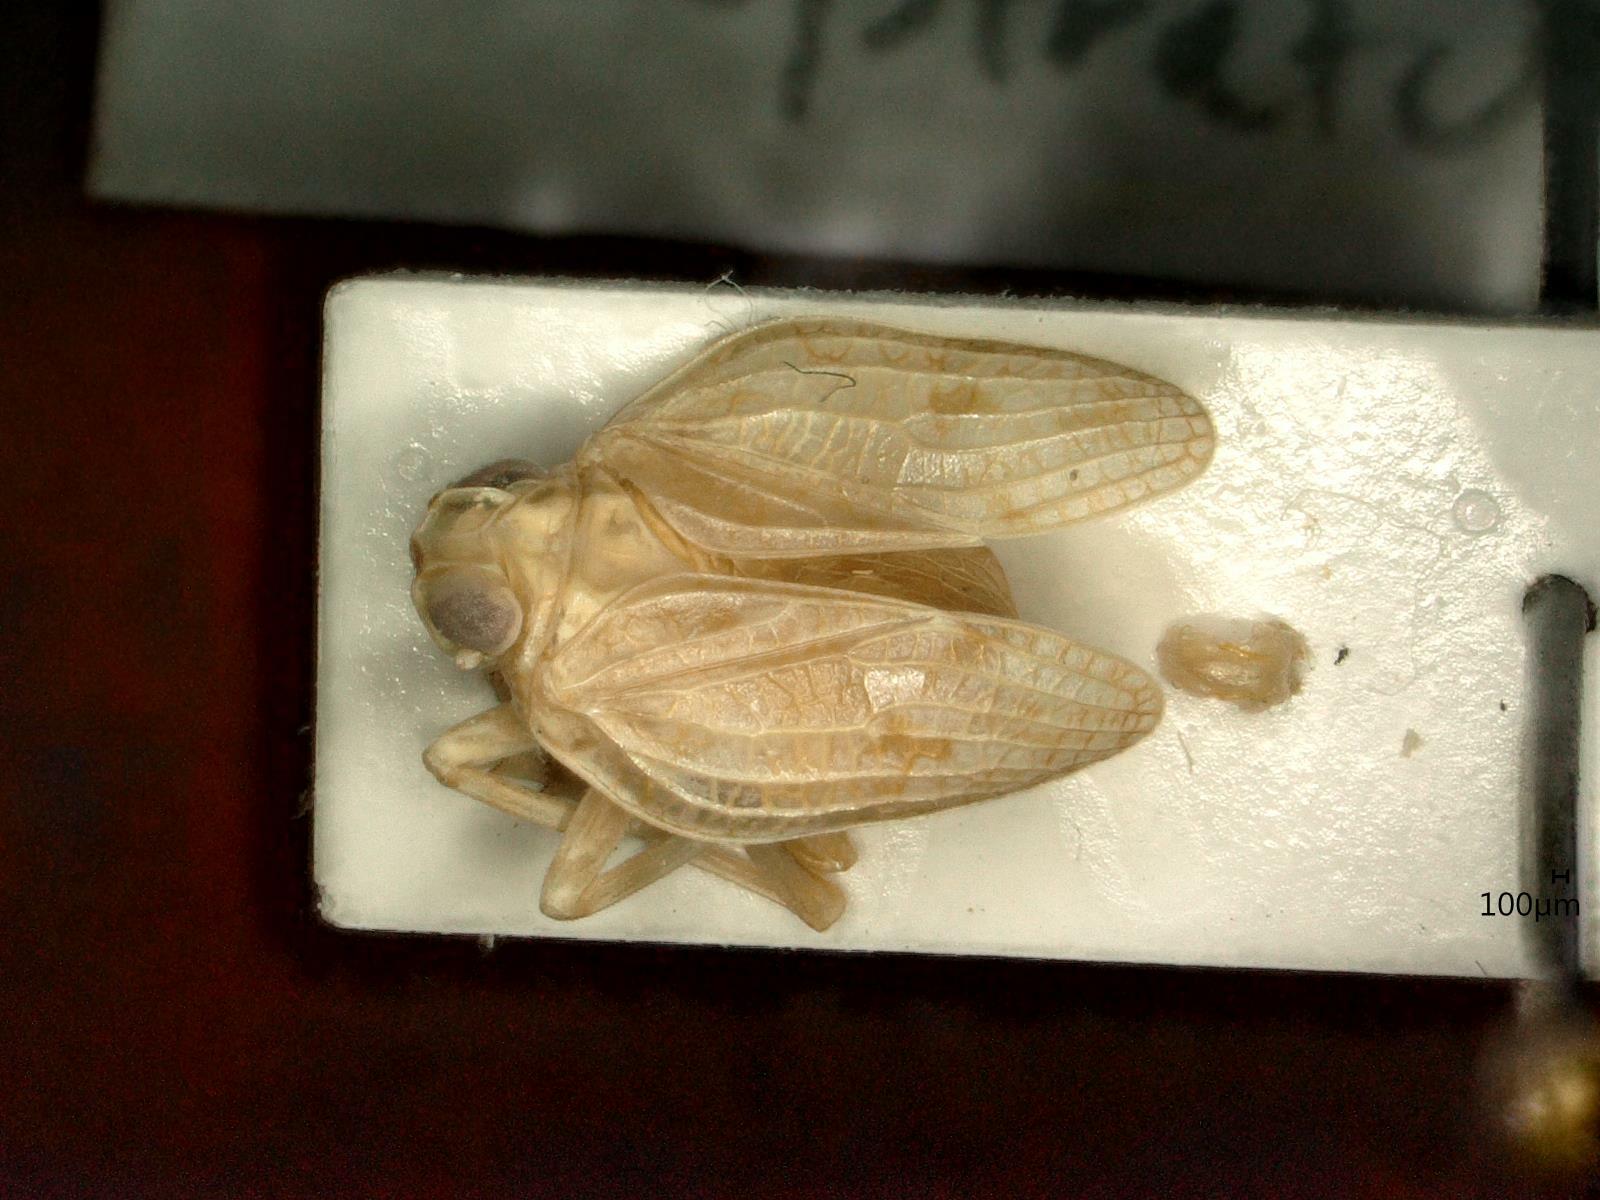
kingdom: Animalia
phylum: Arthropoda
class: Insecta
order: Hemiptera
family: Issidae
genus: Issus
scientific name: Issus coleoptratus
